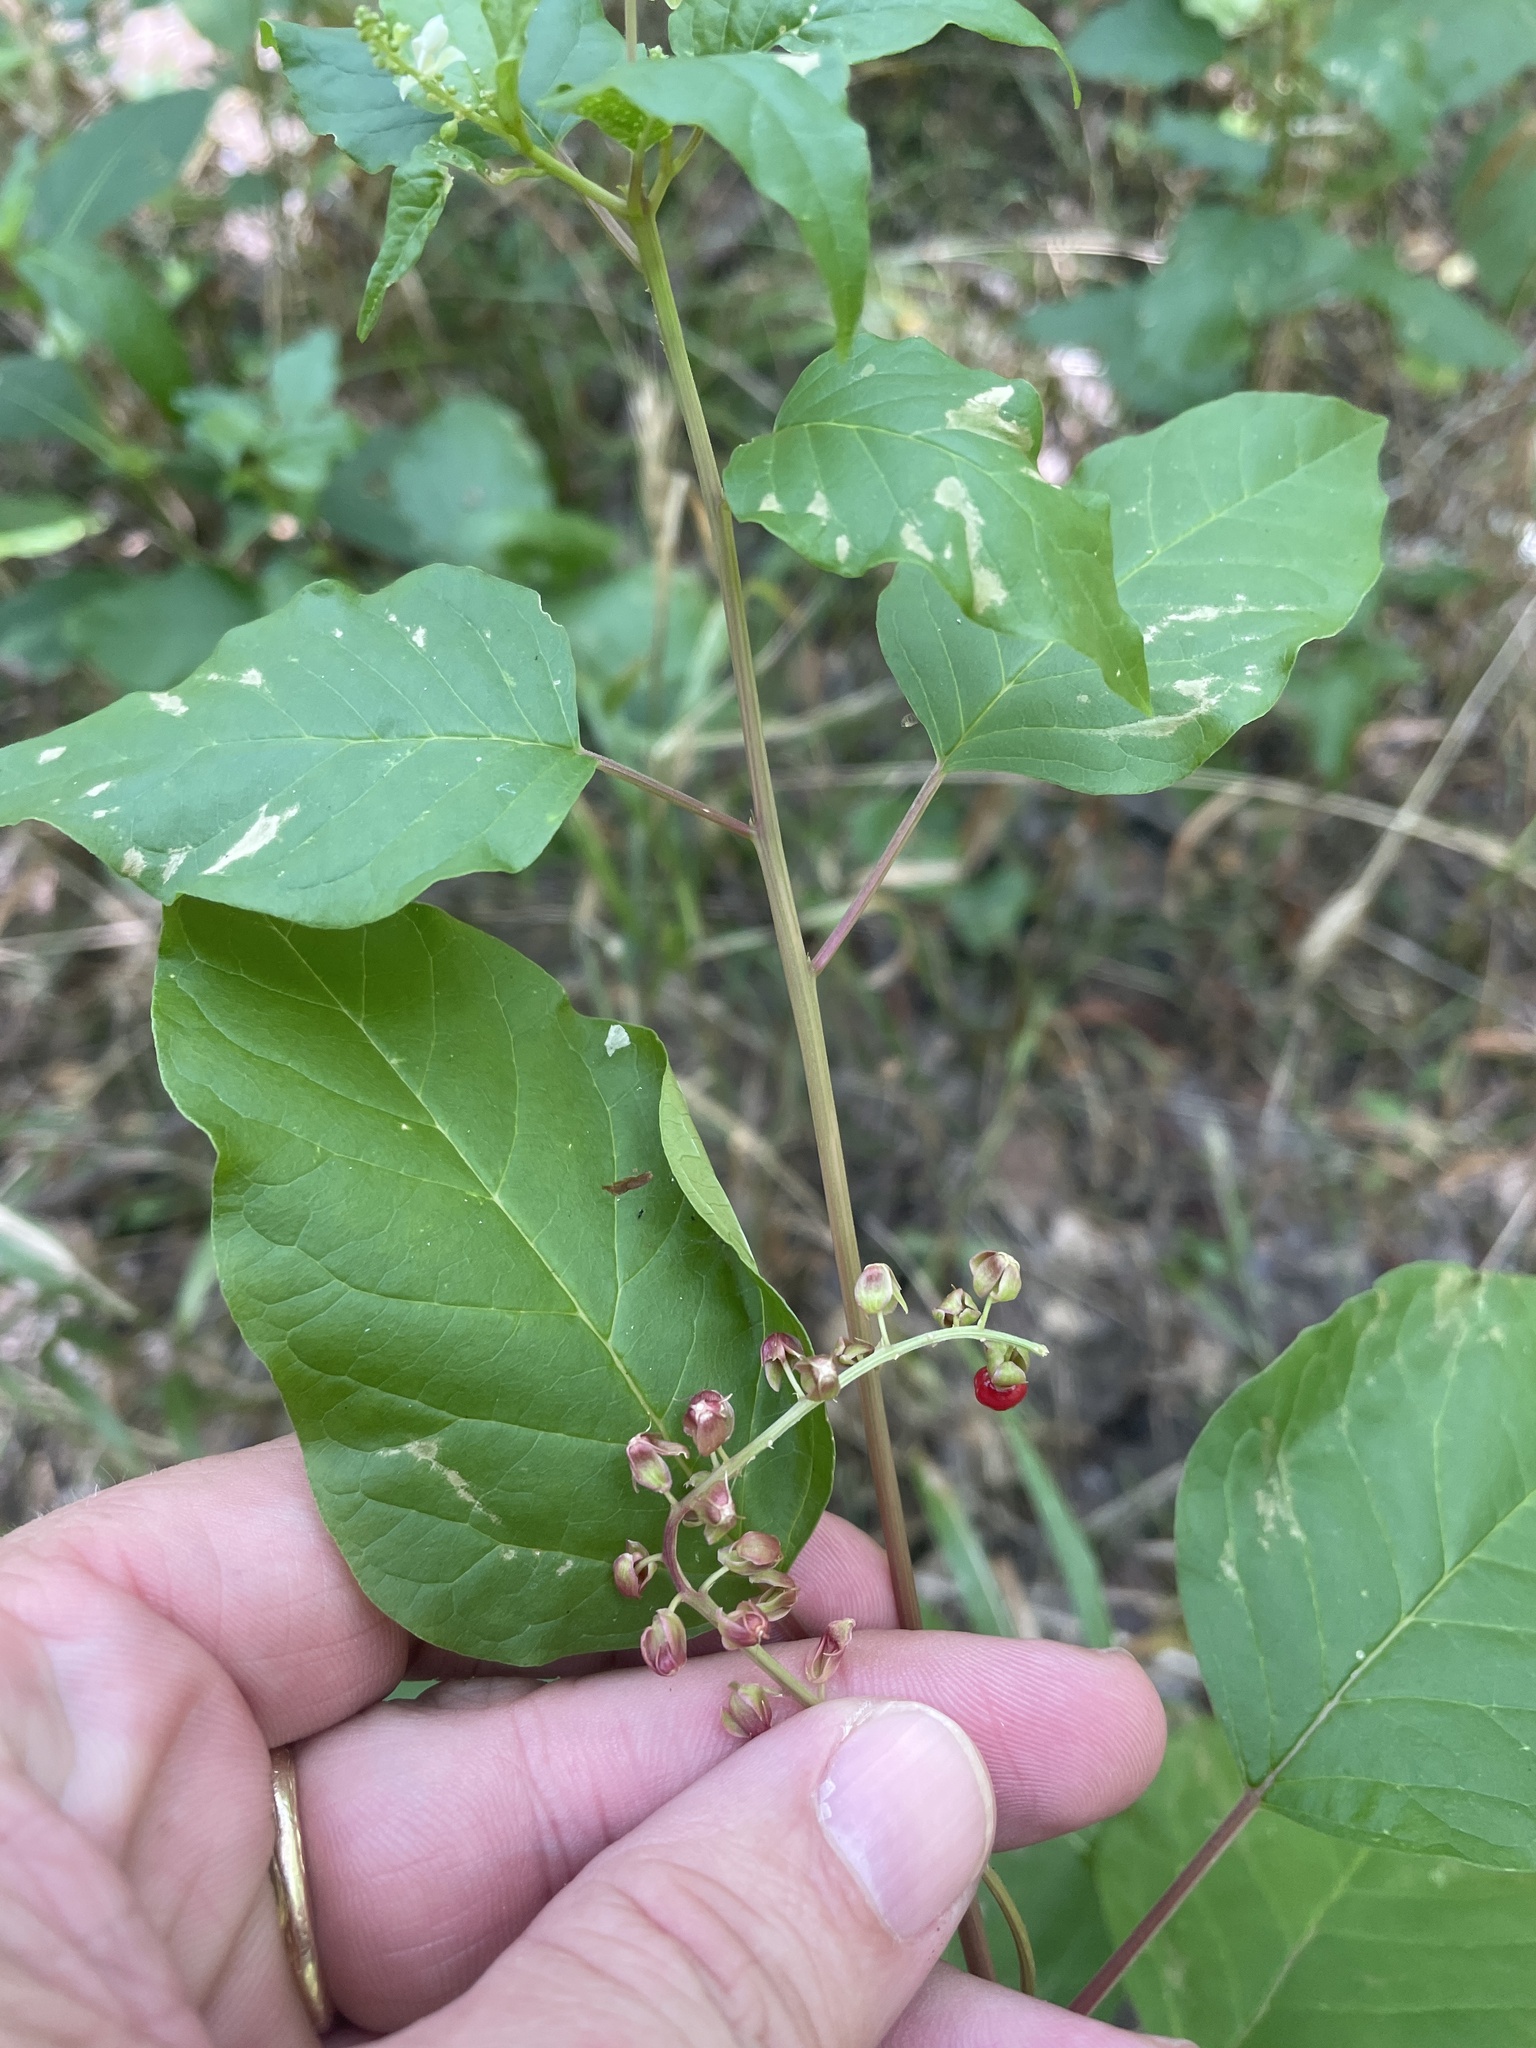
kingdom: Plantae
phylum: Tracheophyta
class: Magnoliopsida
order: Caryophyllales
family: Phytolaccaceae
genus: Rivina
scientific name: Rivina humilis
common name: Rougeplant
